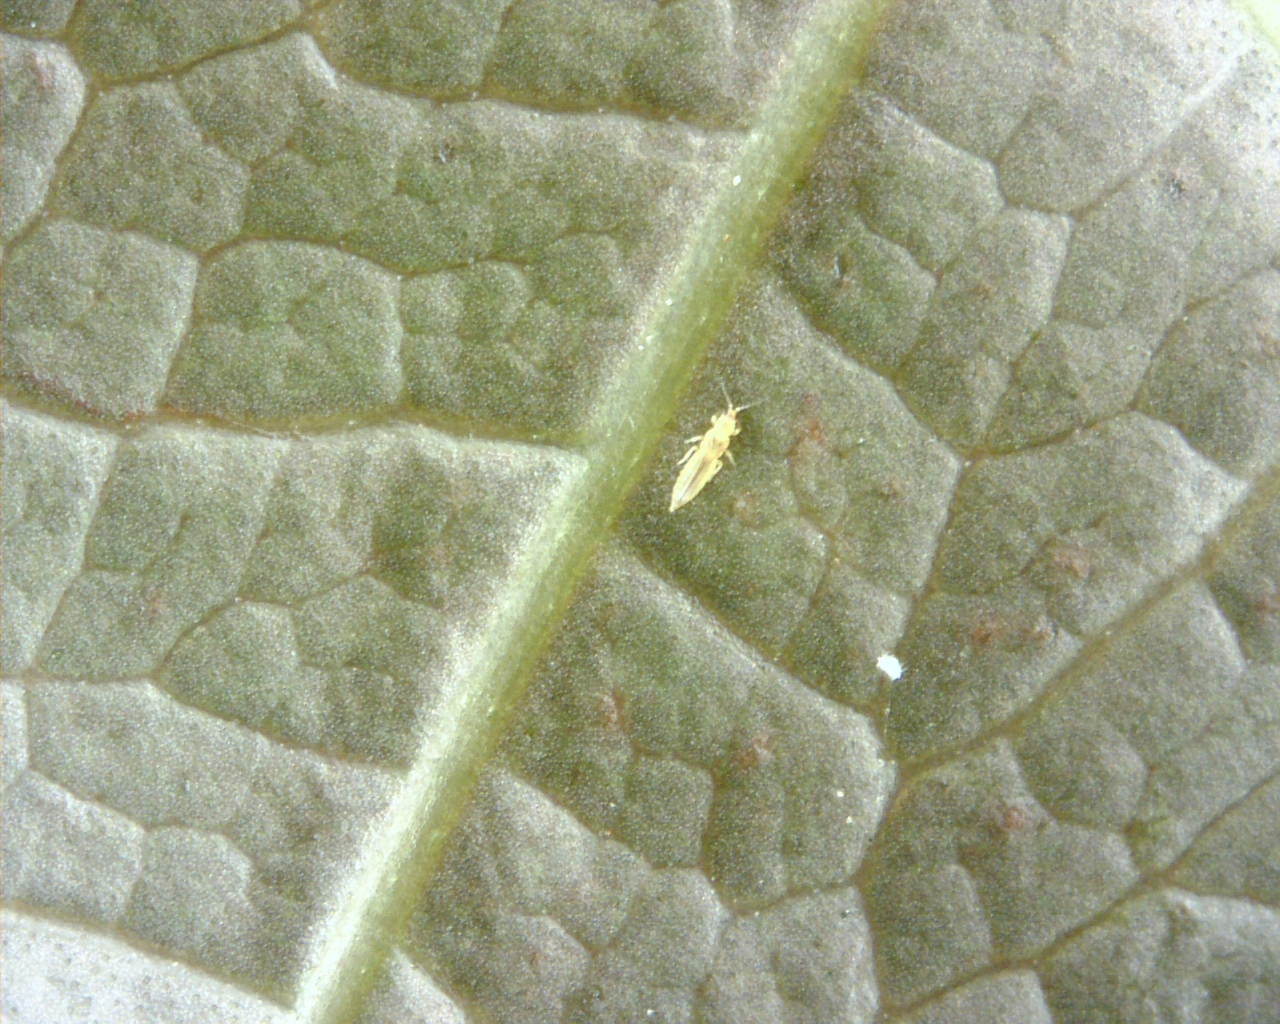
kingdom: Animalia
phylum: Arthropoda
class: Insecta
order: Thysanoptera
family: Thripidae
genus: Scirtothrips
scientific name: Scirtothrips dorsalis
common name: Thrips
